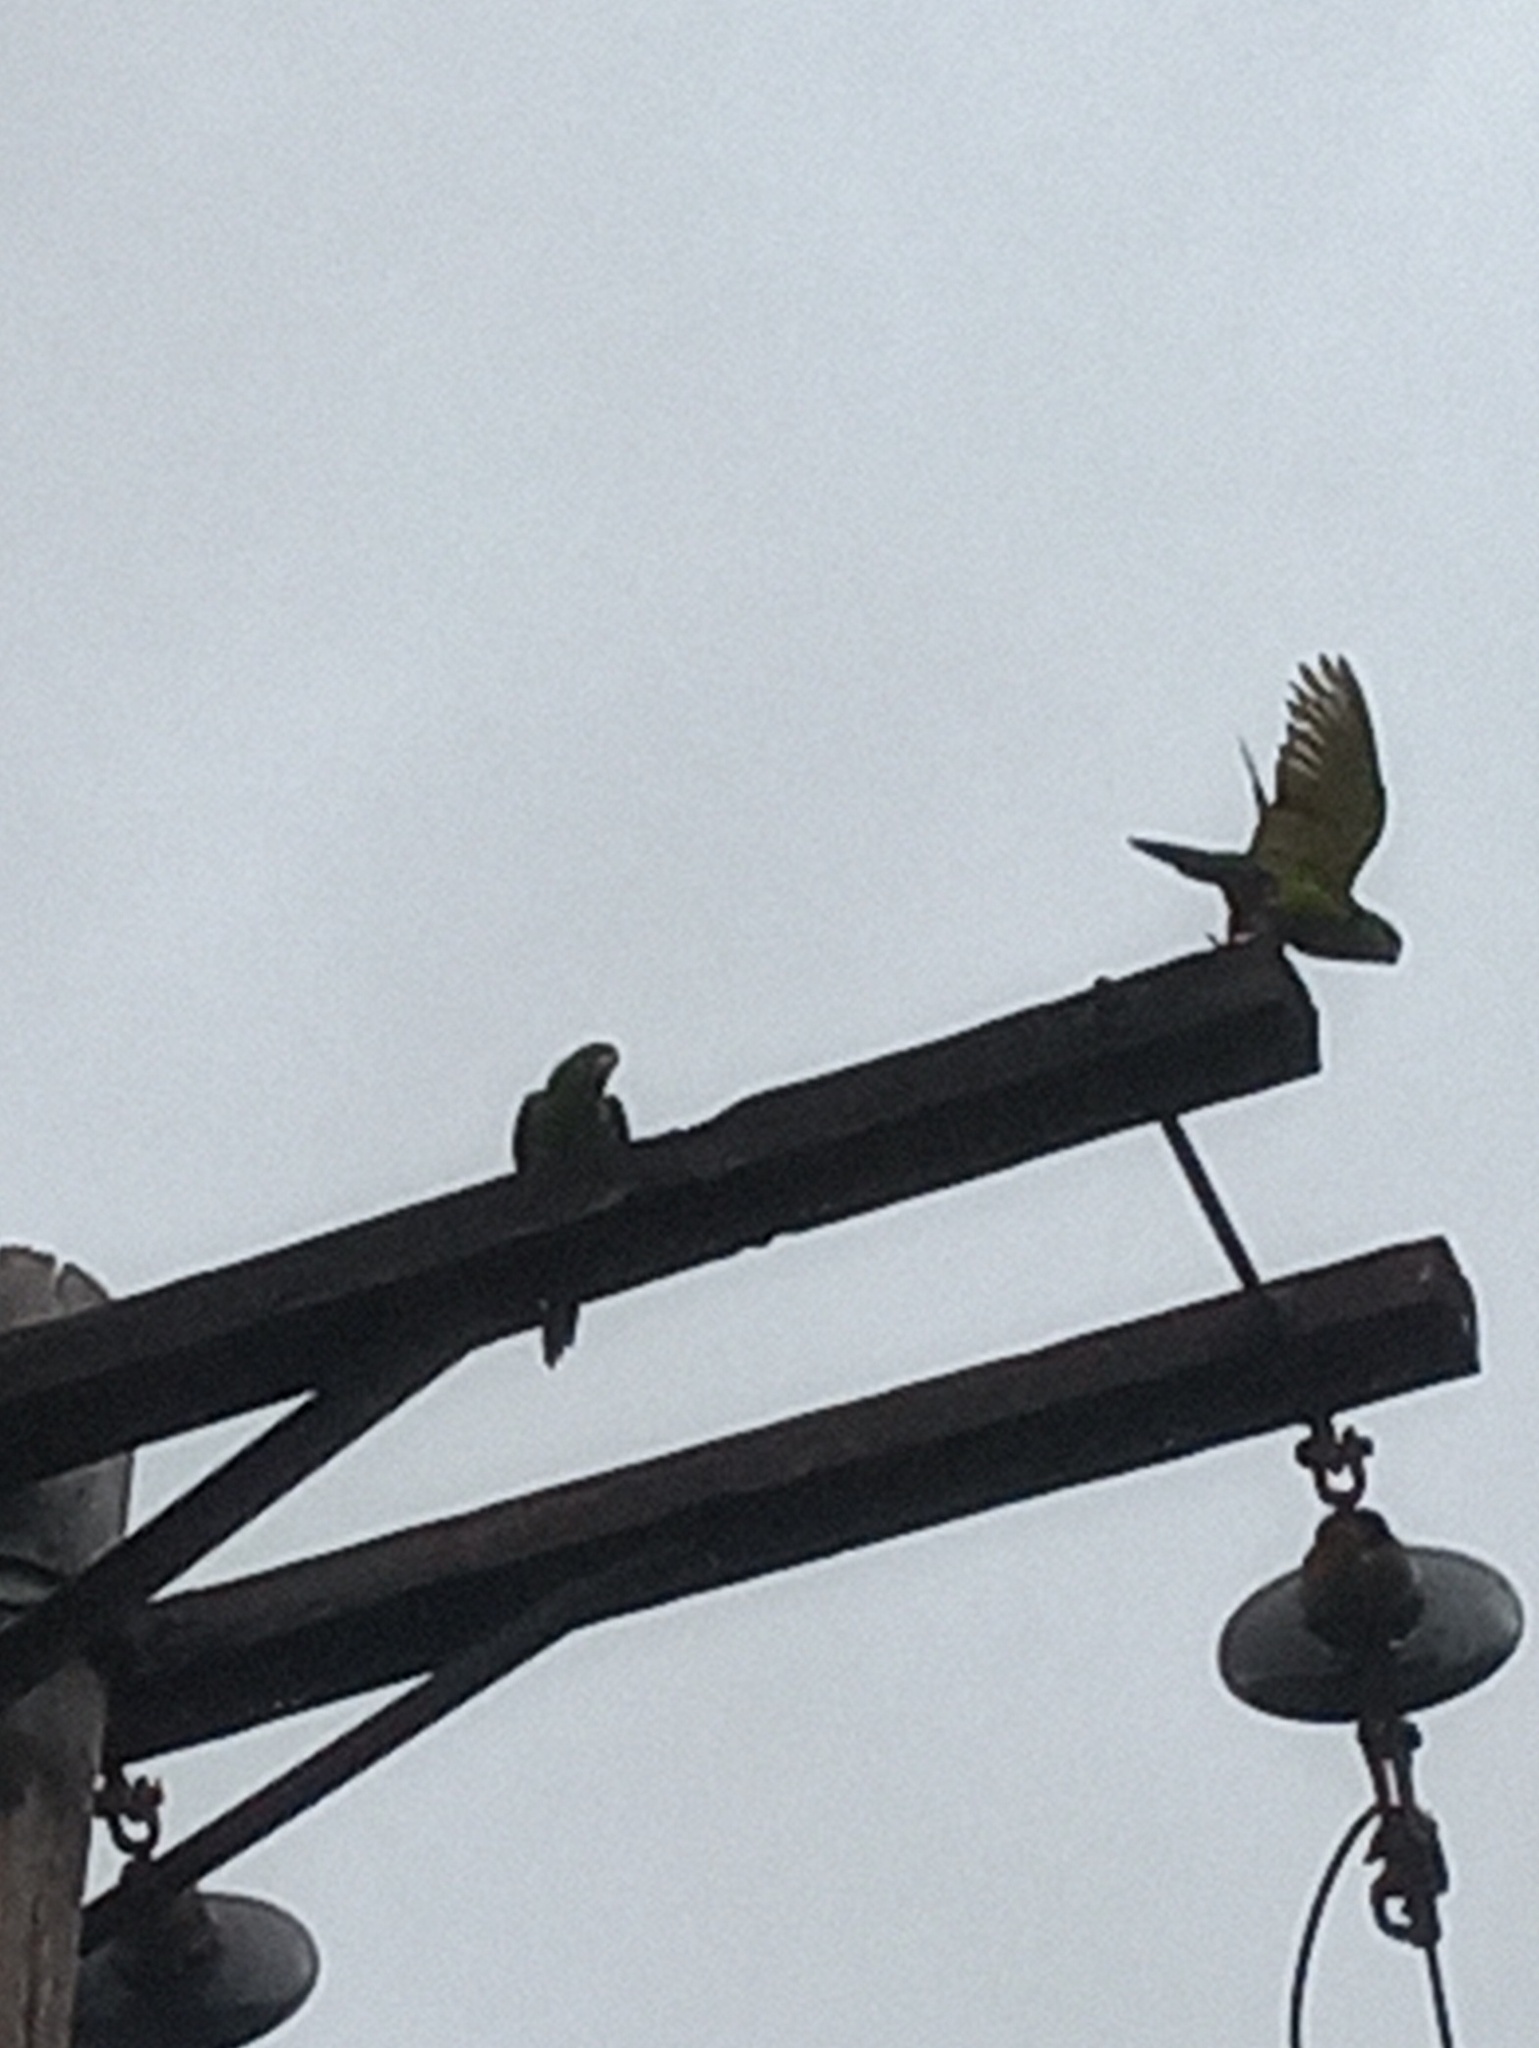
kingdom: Animalia
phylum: Chordata
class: Aves
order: Psittaciformes
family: Psittacidae
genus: Aratinga
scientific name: Aratinga holochlora
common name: Green parakeet
